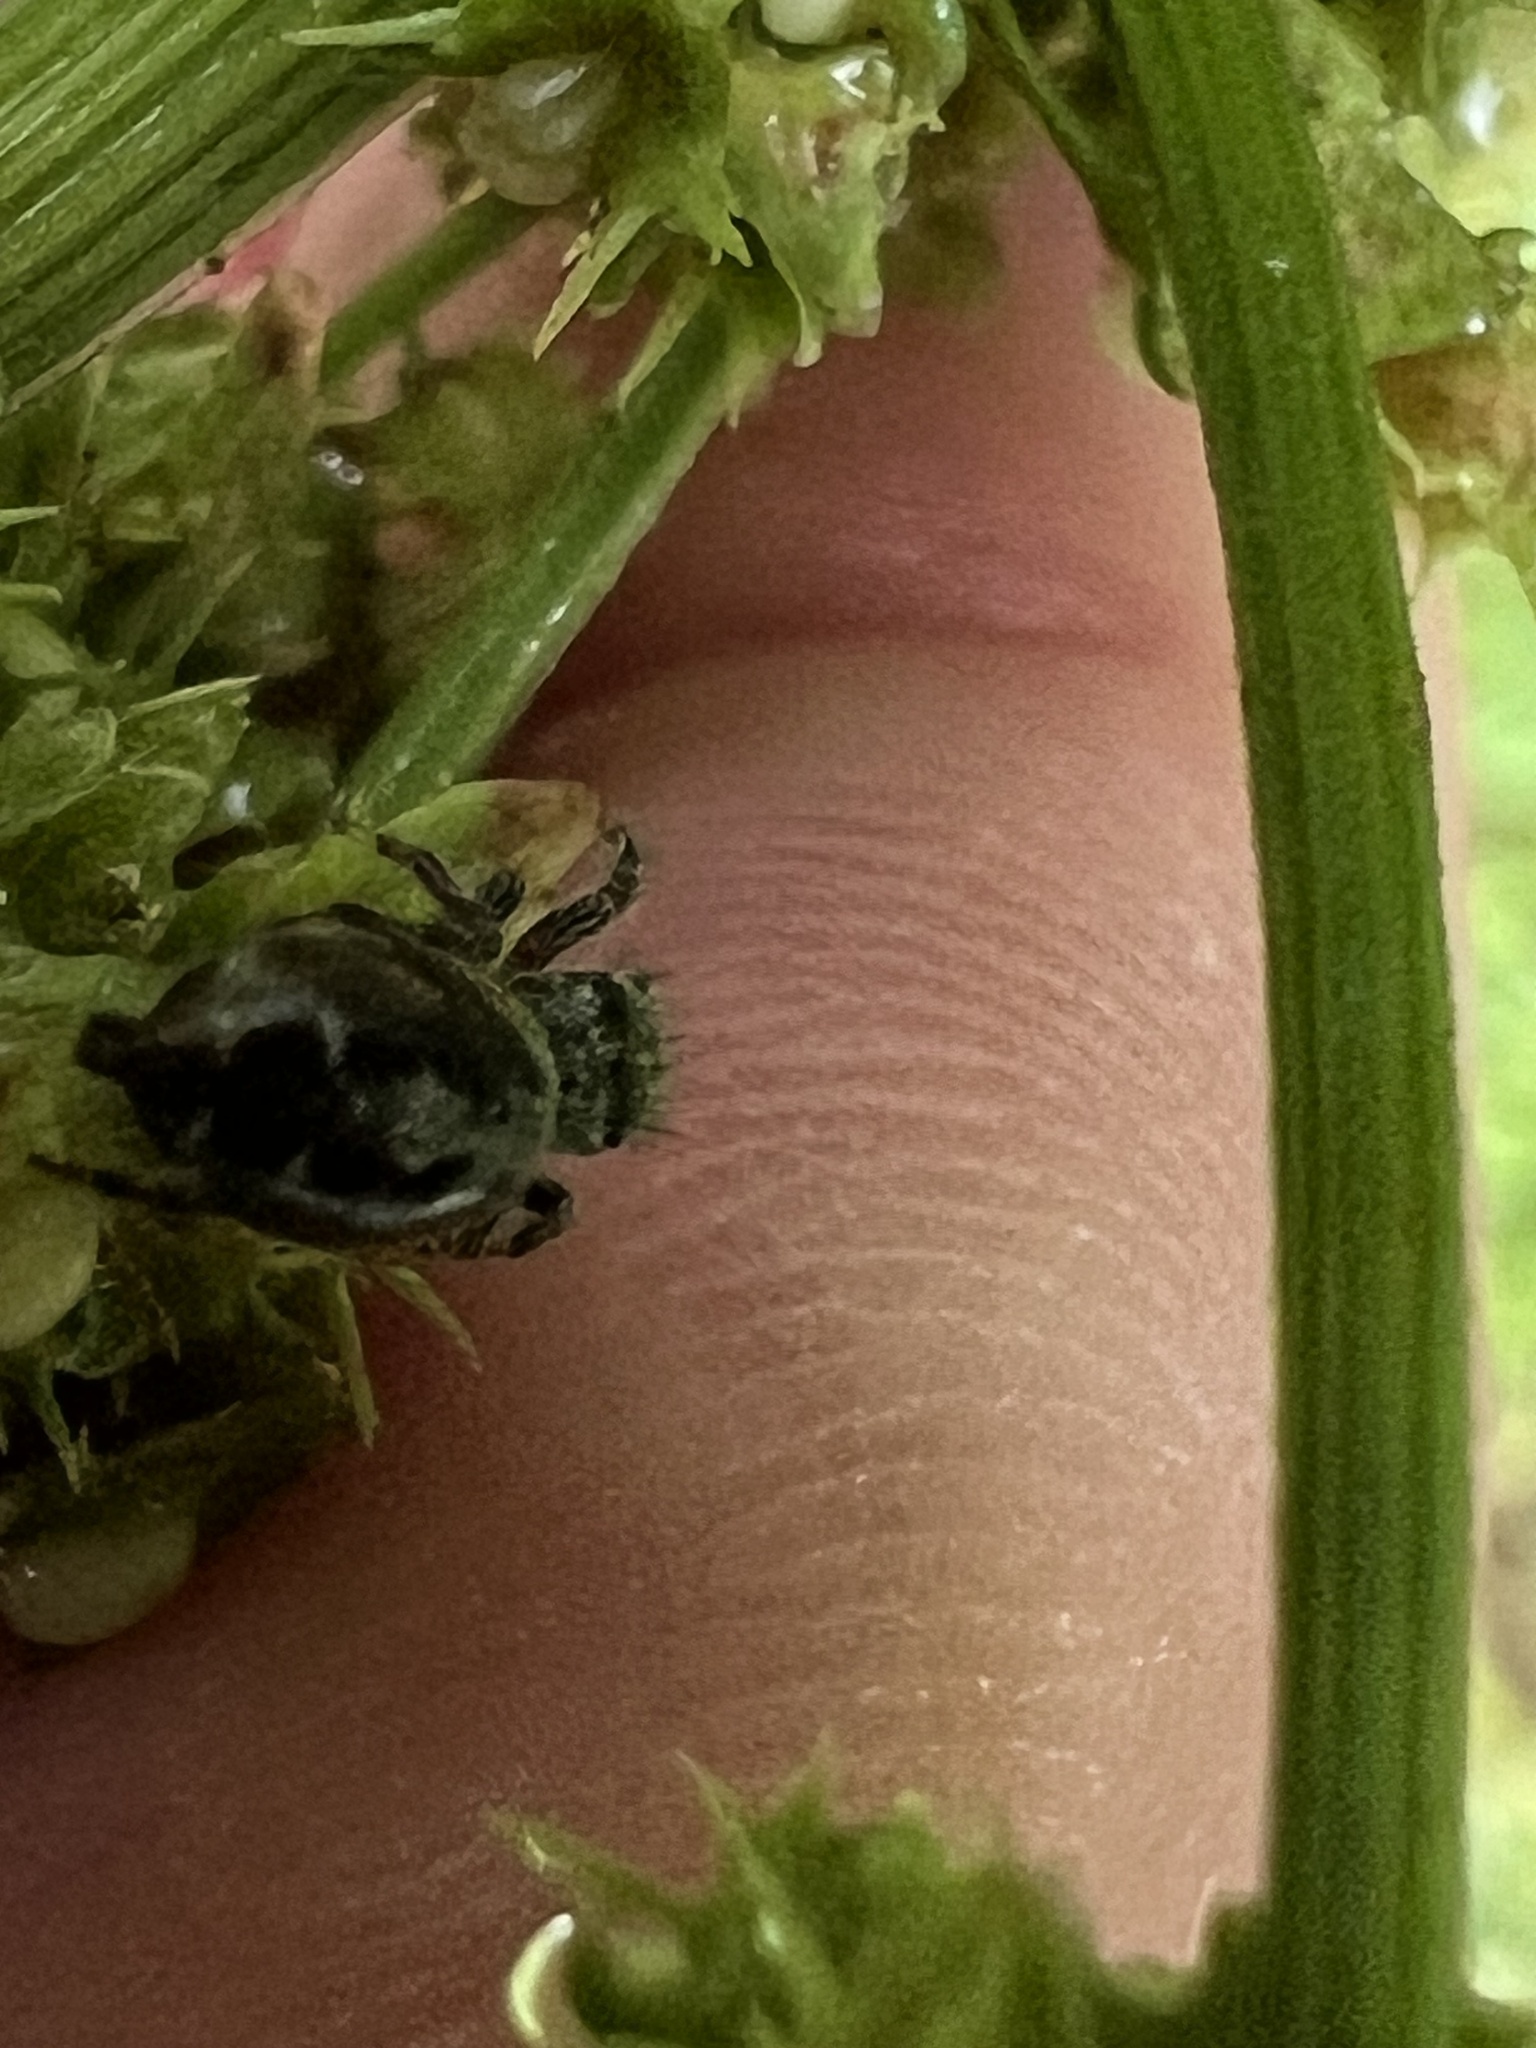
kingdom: Animalia
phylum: Arthropoda
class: Arachnida
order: Araneae
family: Salticidae
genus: Phidippus
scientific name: Phidippus putnami
